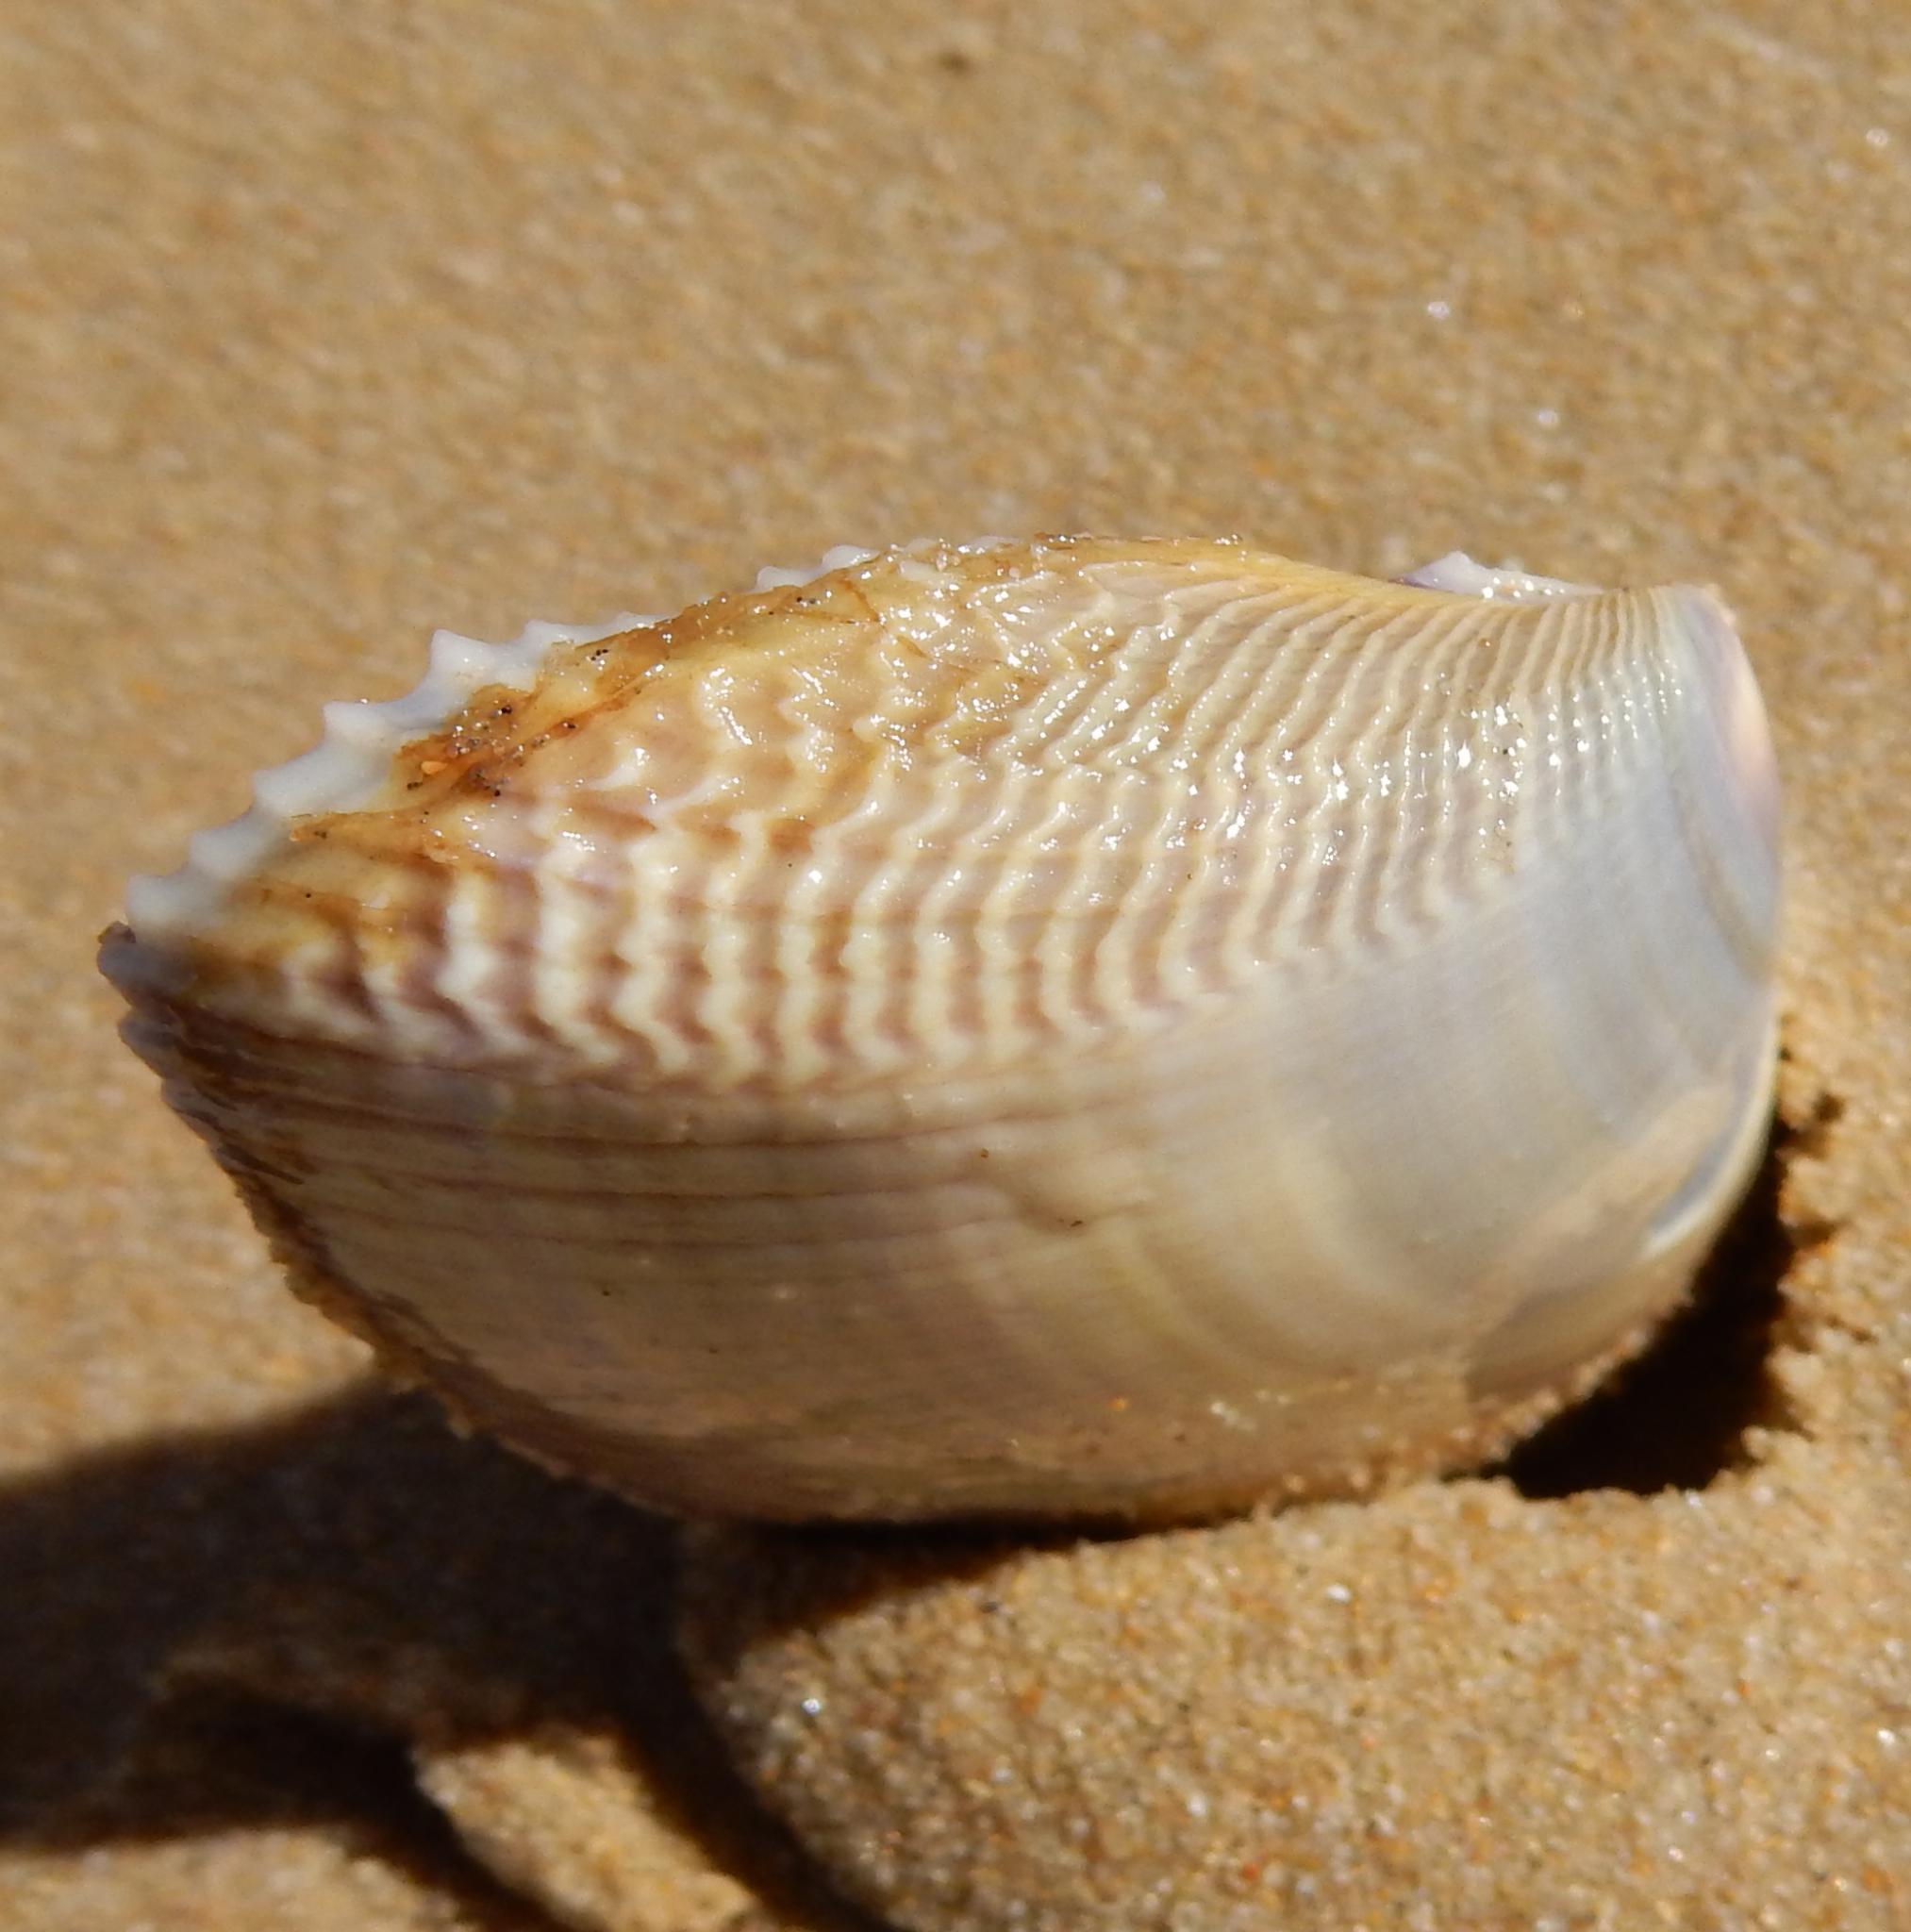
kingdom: Animalia
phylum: Mollusca
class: Bivalvia
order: Cardiida
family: Donacidae
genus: Donax
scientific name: Donax serra
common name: Giant south african wedge clam
